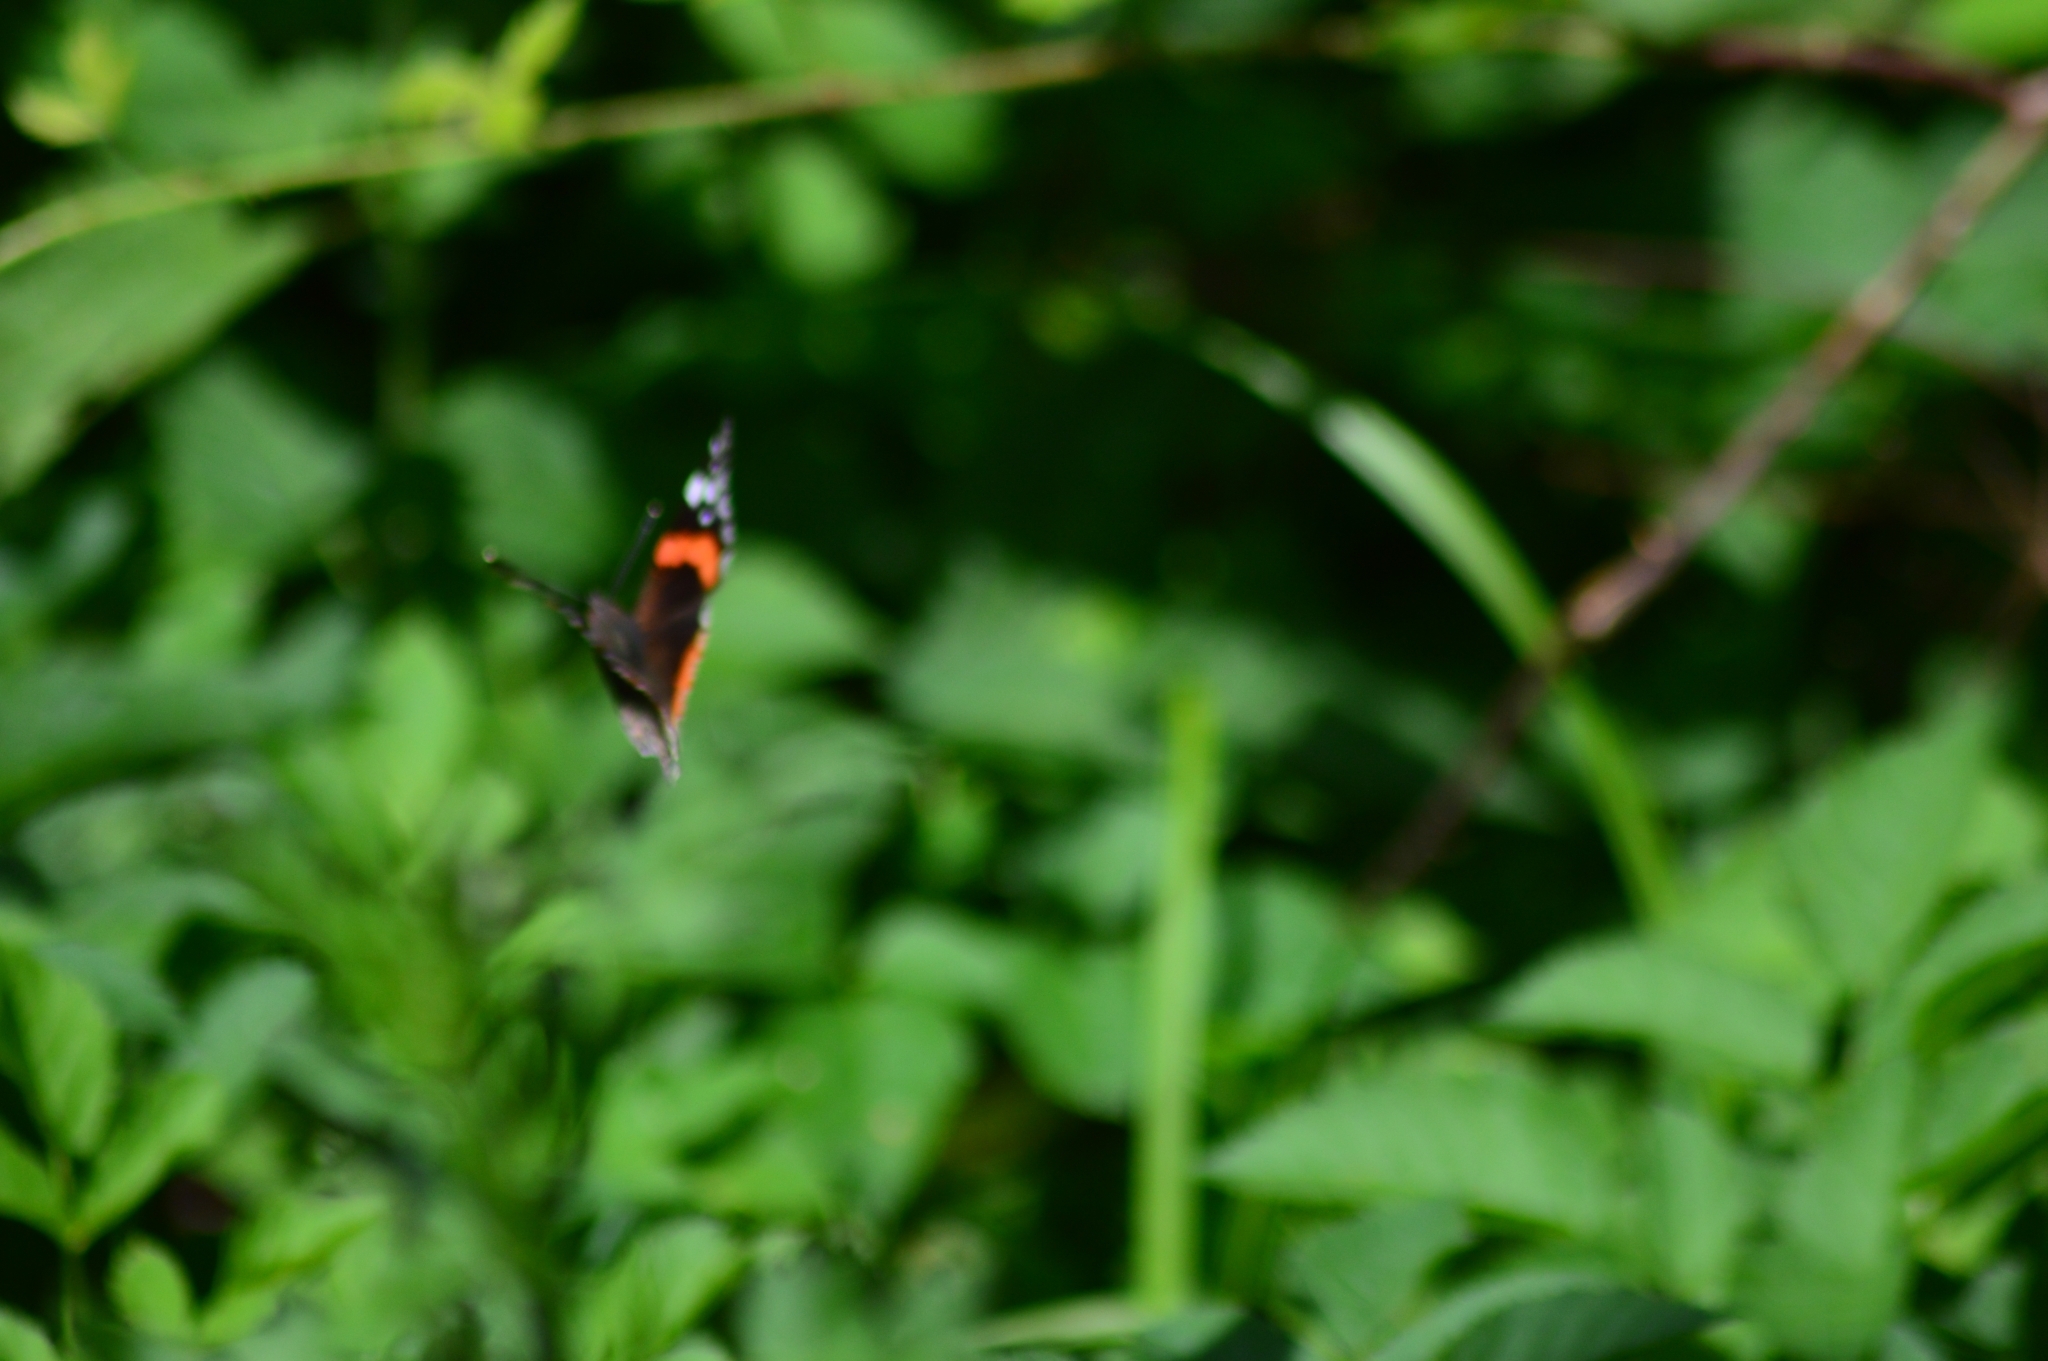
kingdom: Animalia
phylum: Arthropoda
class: Insecta
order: Lepidoptera
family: Nymphalidae
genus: Vanessa
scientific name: Vanessa atalanta
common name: Red admiral
